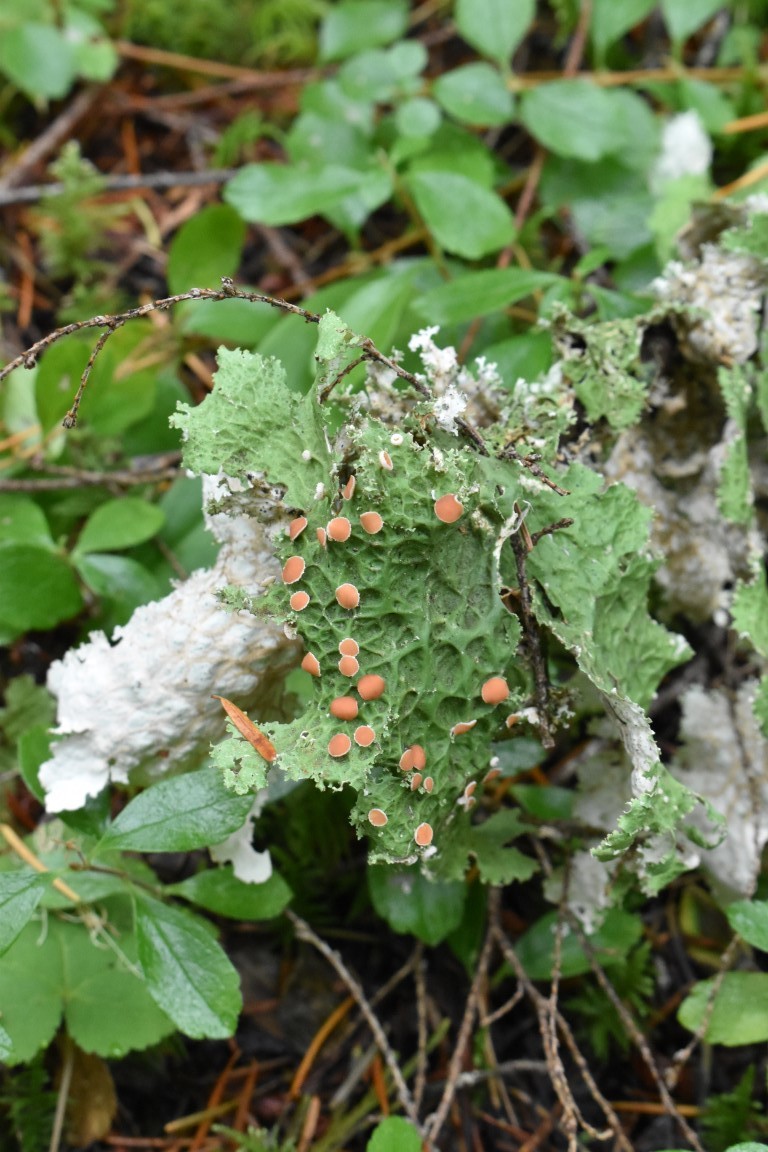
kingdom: Fungi
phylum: Ascomycota
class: Lecanoromycetes
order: Peltigerales
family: Lobariaceae
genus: Lobaria
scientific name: Lobaria oregana
